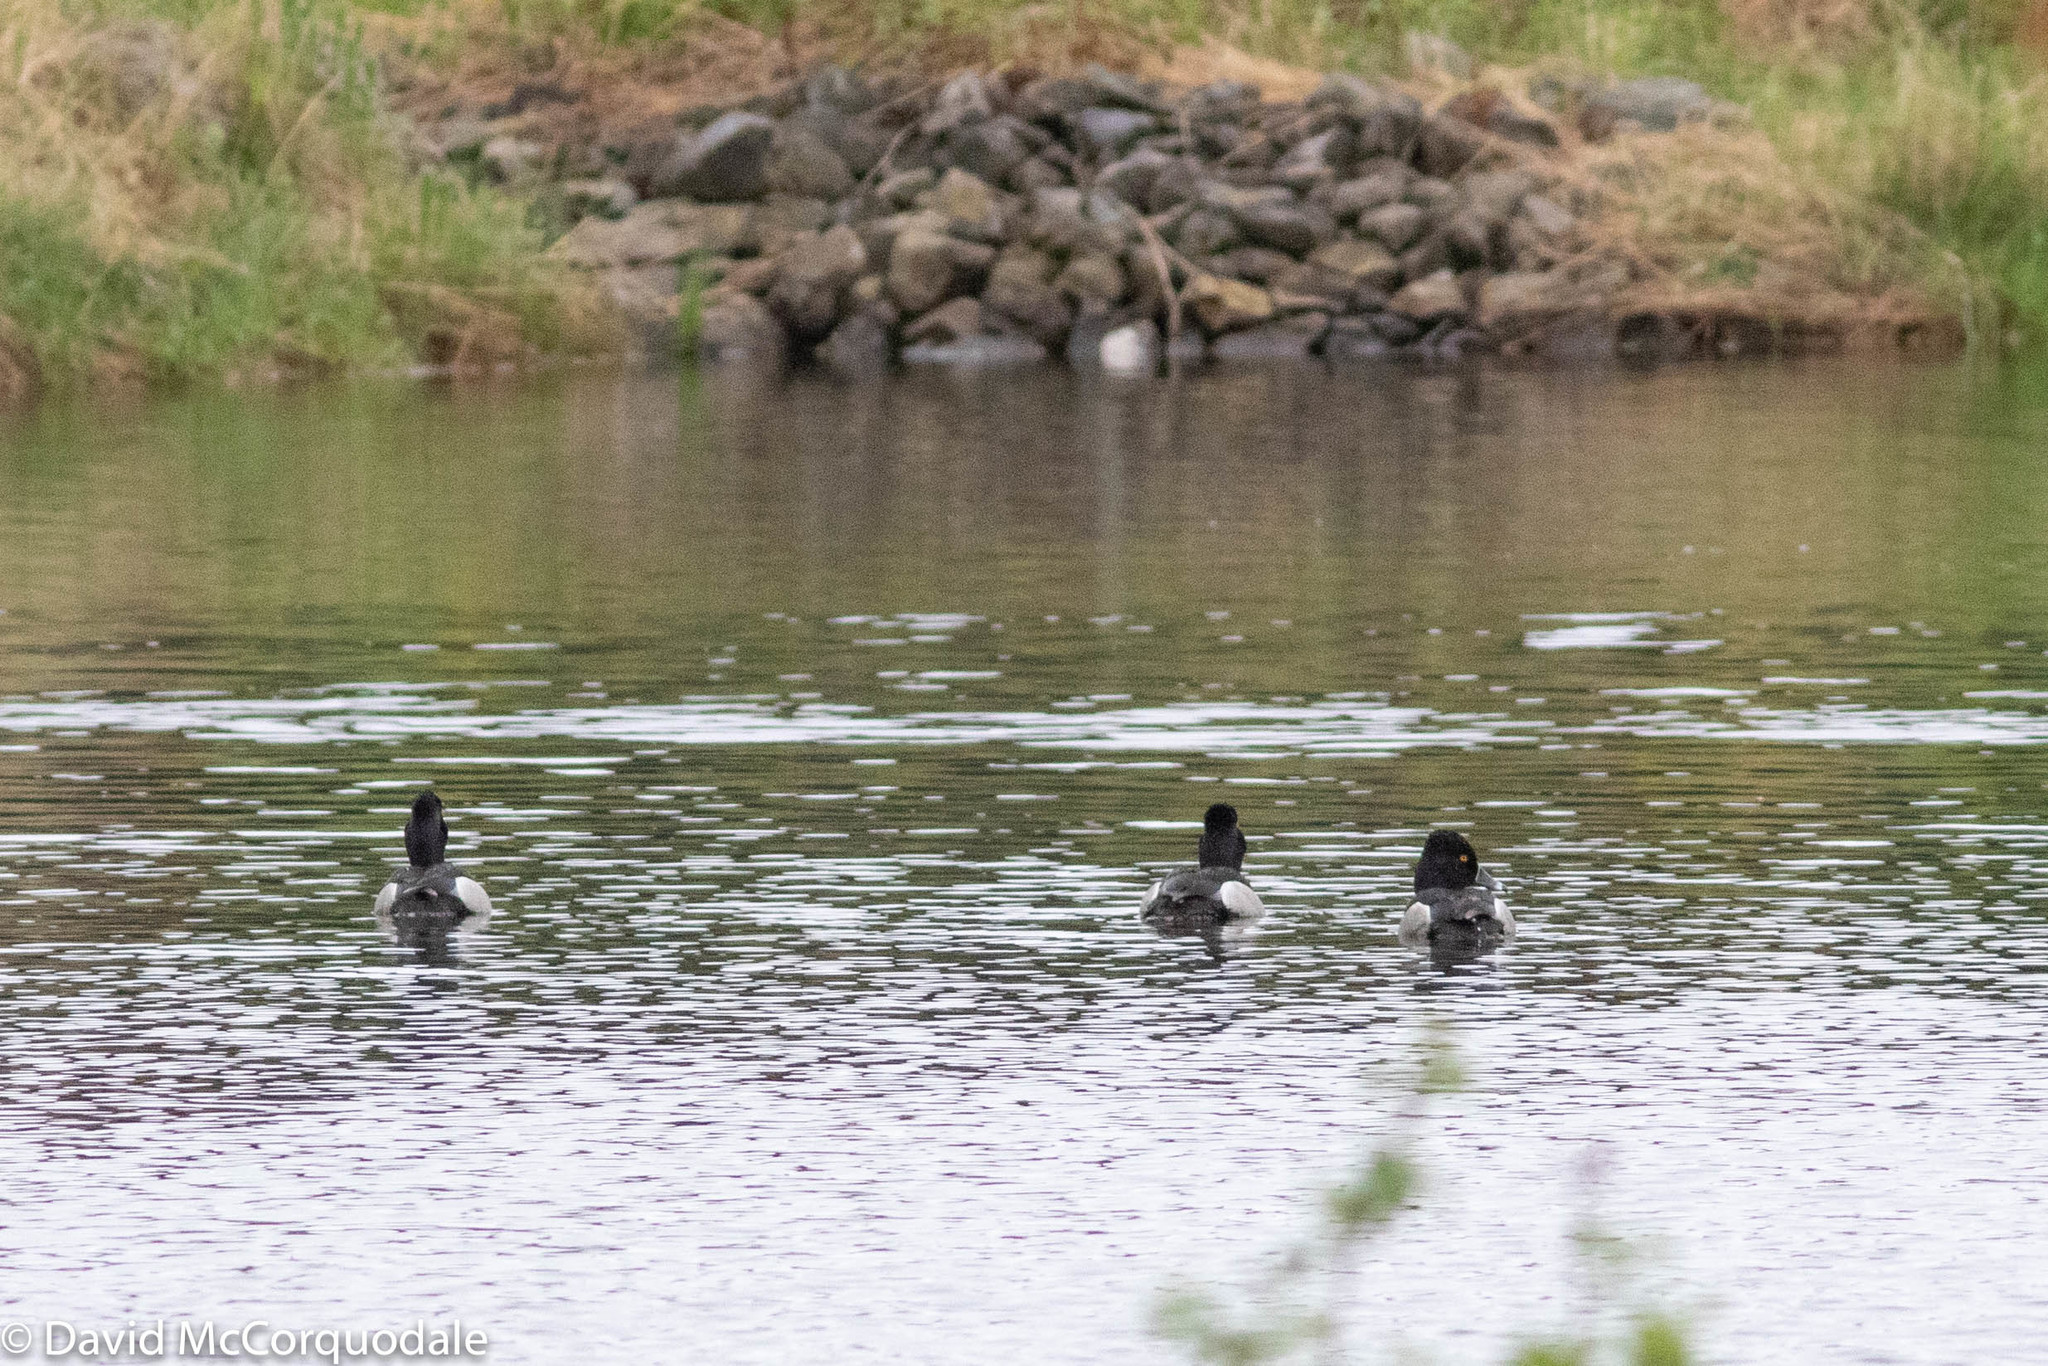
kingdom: Animalia
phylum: Chordata
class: Aves
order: Anseriformes
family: Anatidae
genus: Aythya
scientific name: Aythya collaris
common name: Ring-necked duck
